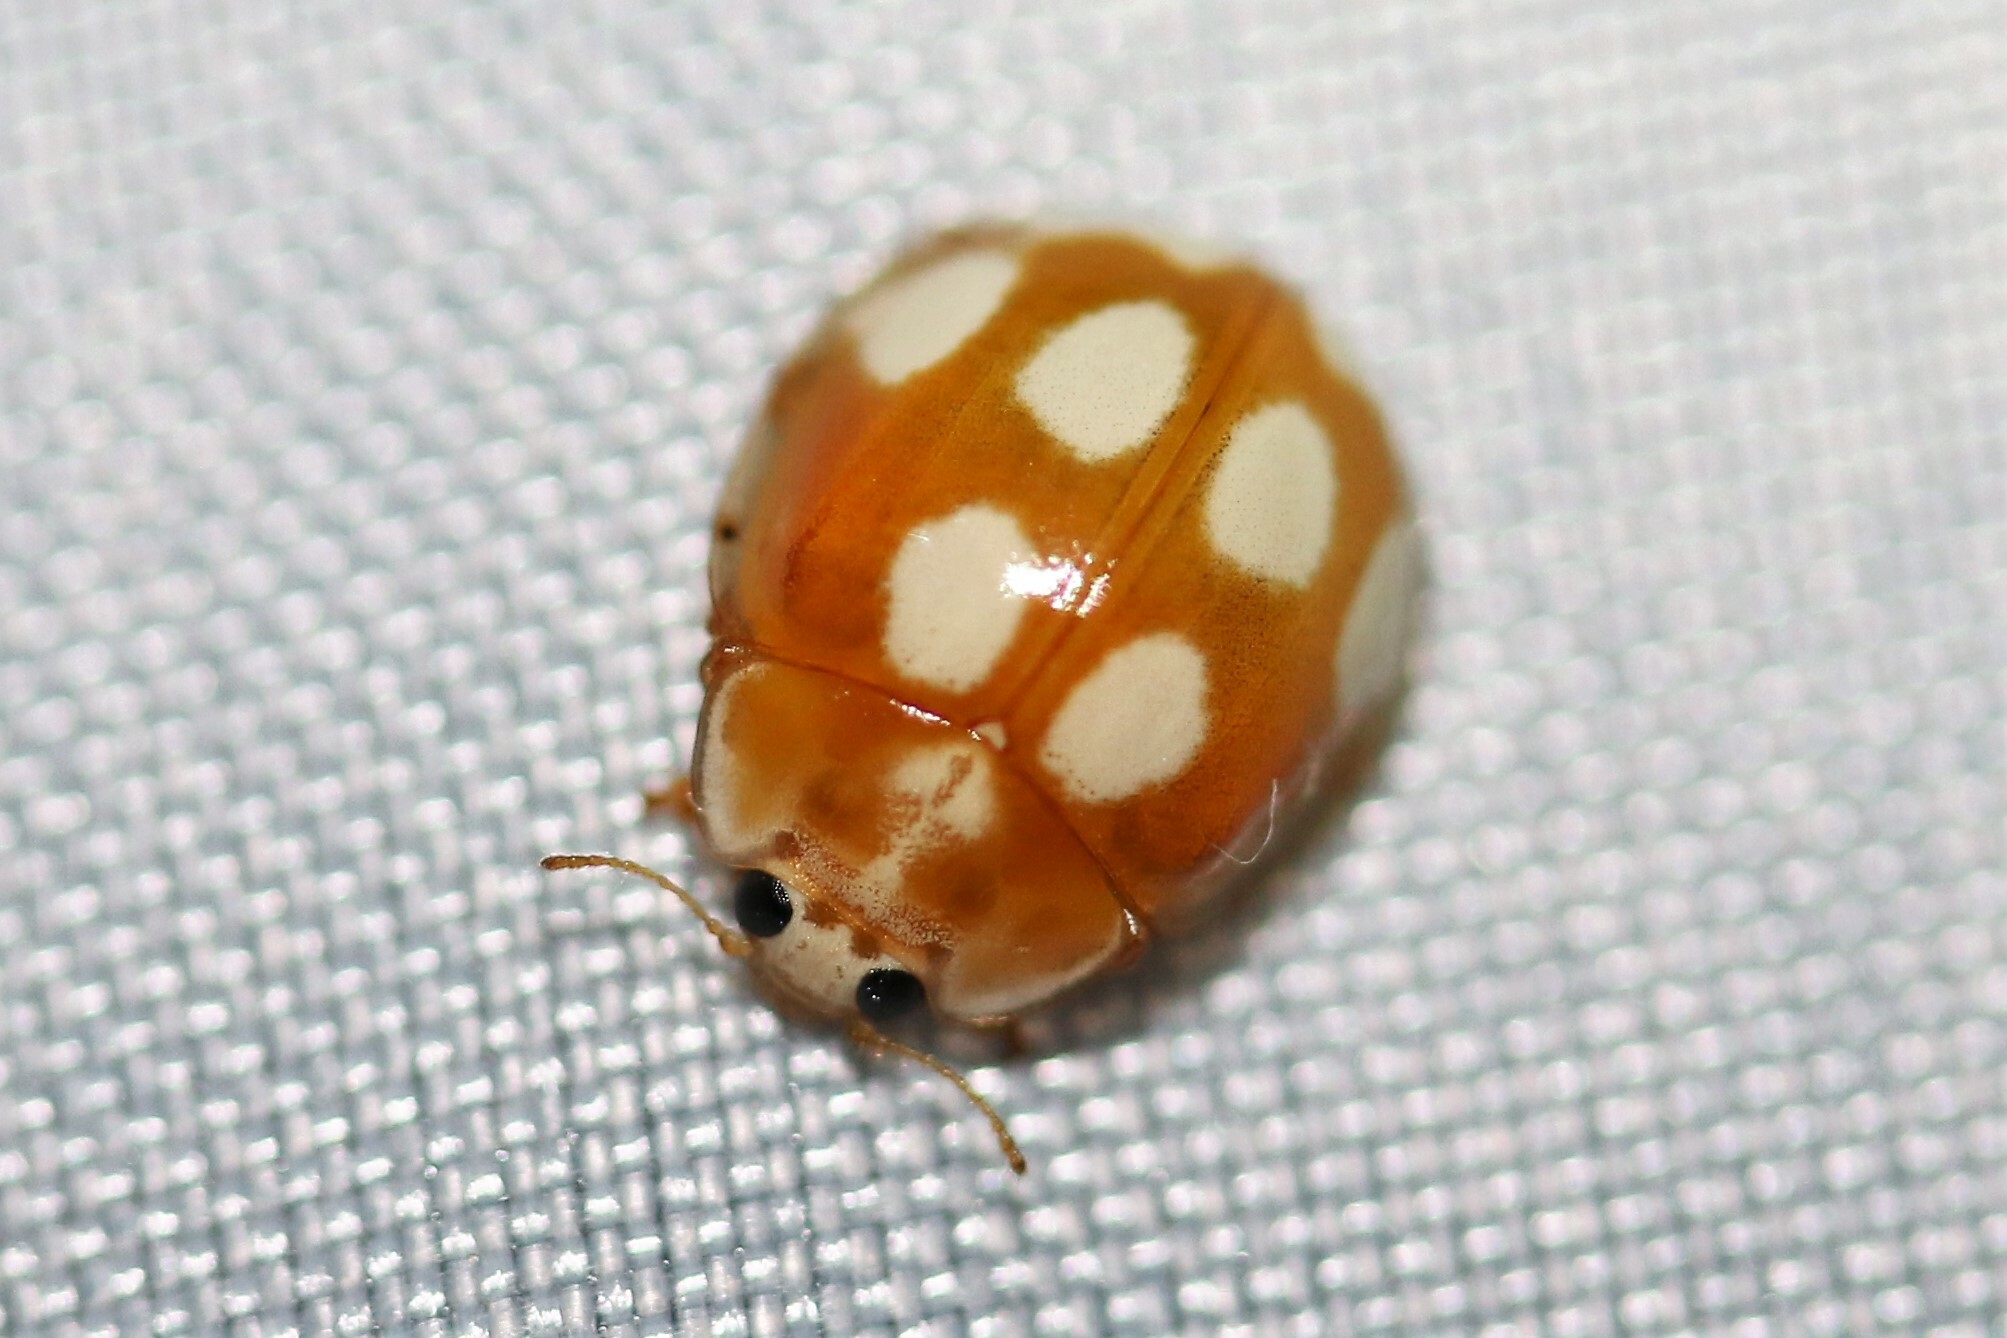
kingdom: Animalia
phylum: Arthropoda
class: Insecta
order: Coleoptera
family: Coccinellidae
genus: Calvia
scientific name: Calvia decemguttata
